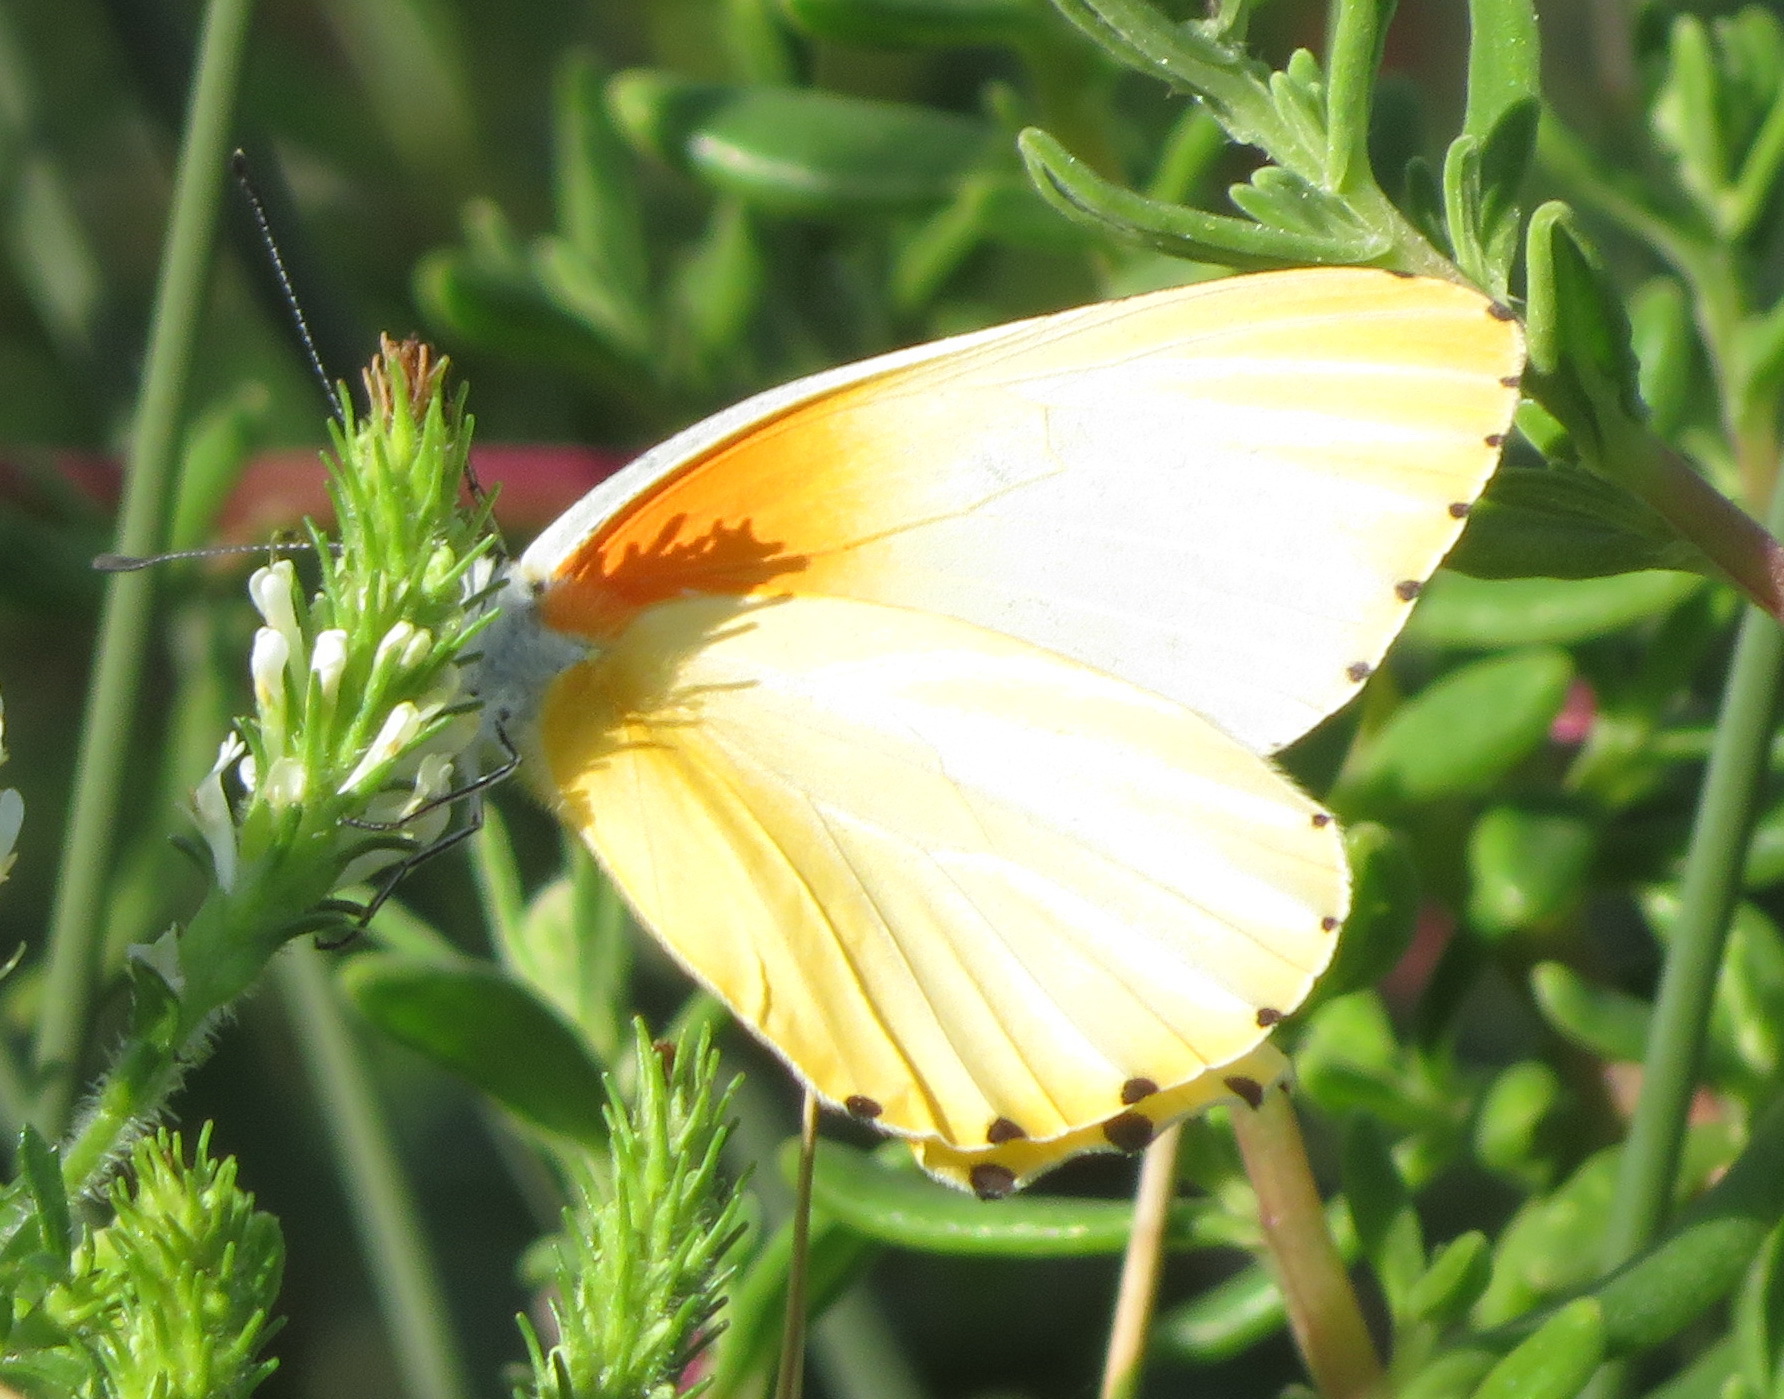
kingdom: Animalia
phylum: Arthropoda
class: Insecta
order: Lepidoptera
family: Pieridae
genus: Mylothris
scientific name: Mylothris agathina
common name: Eastern dotted border
